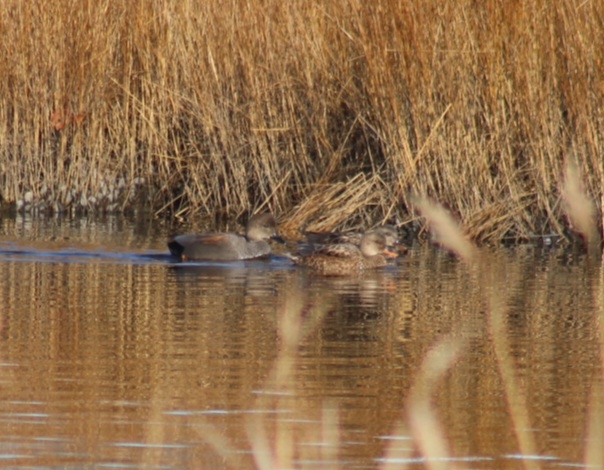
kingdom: Animalia
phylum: Chordata
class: Aves
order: Anseriformes
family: Anatidae
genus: Mareca
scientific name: Mareca strepera
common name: Gadwall
